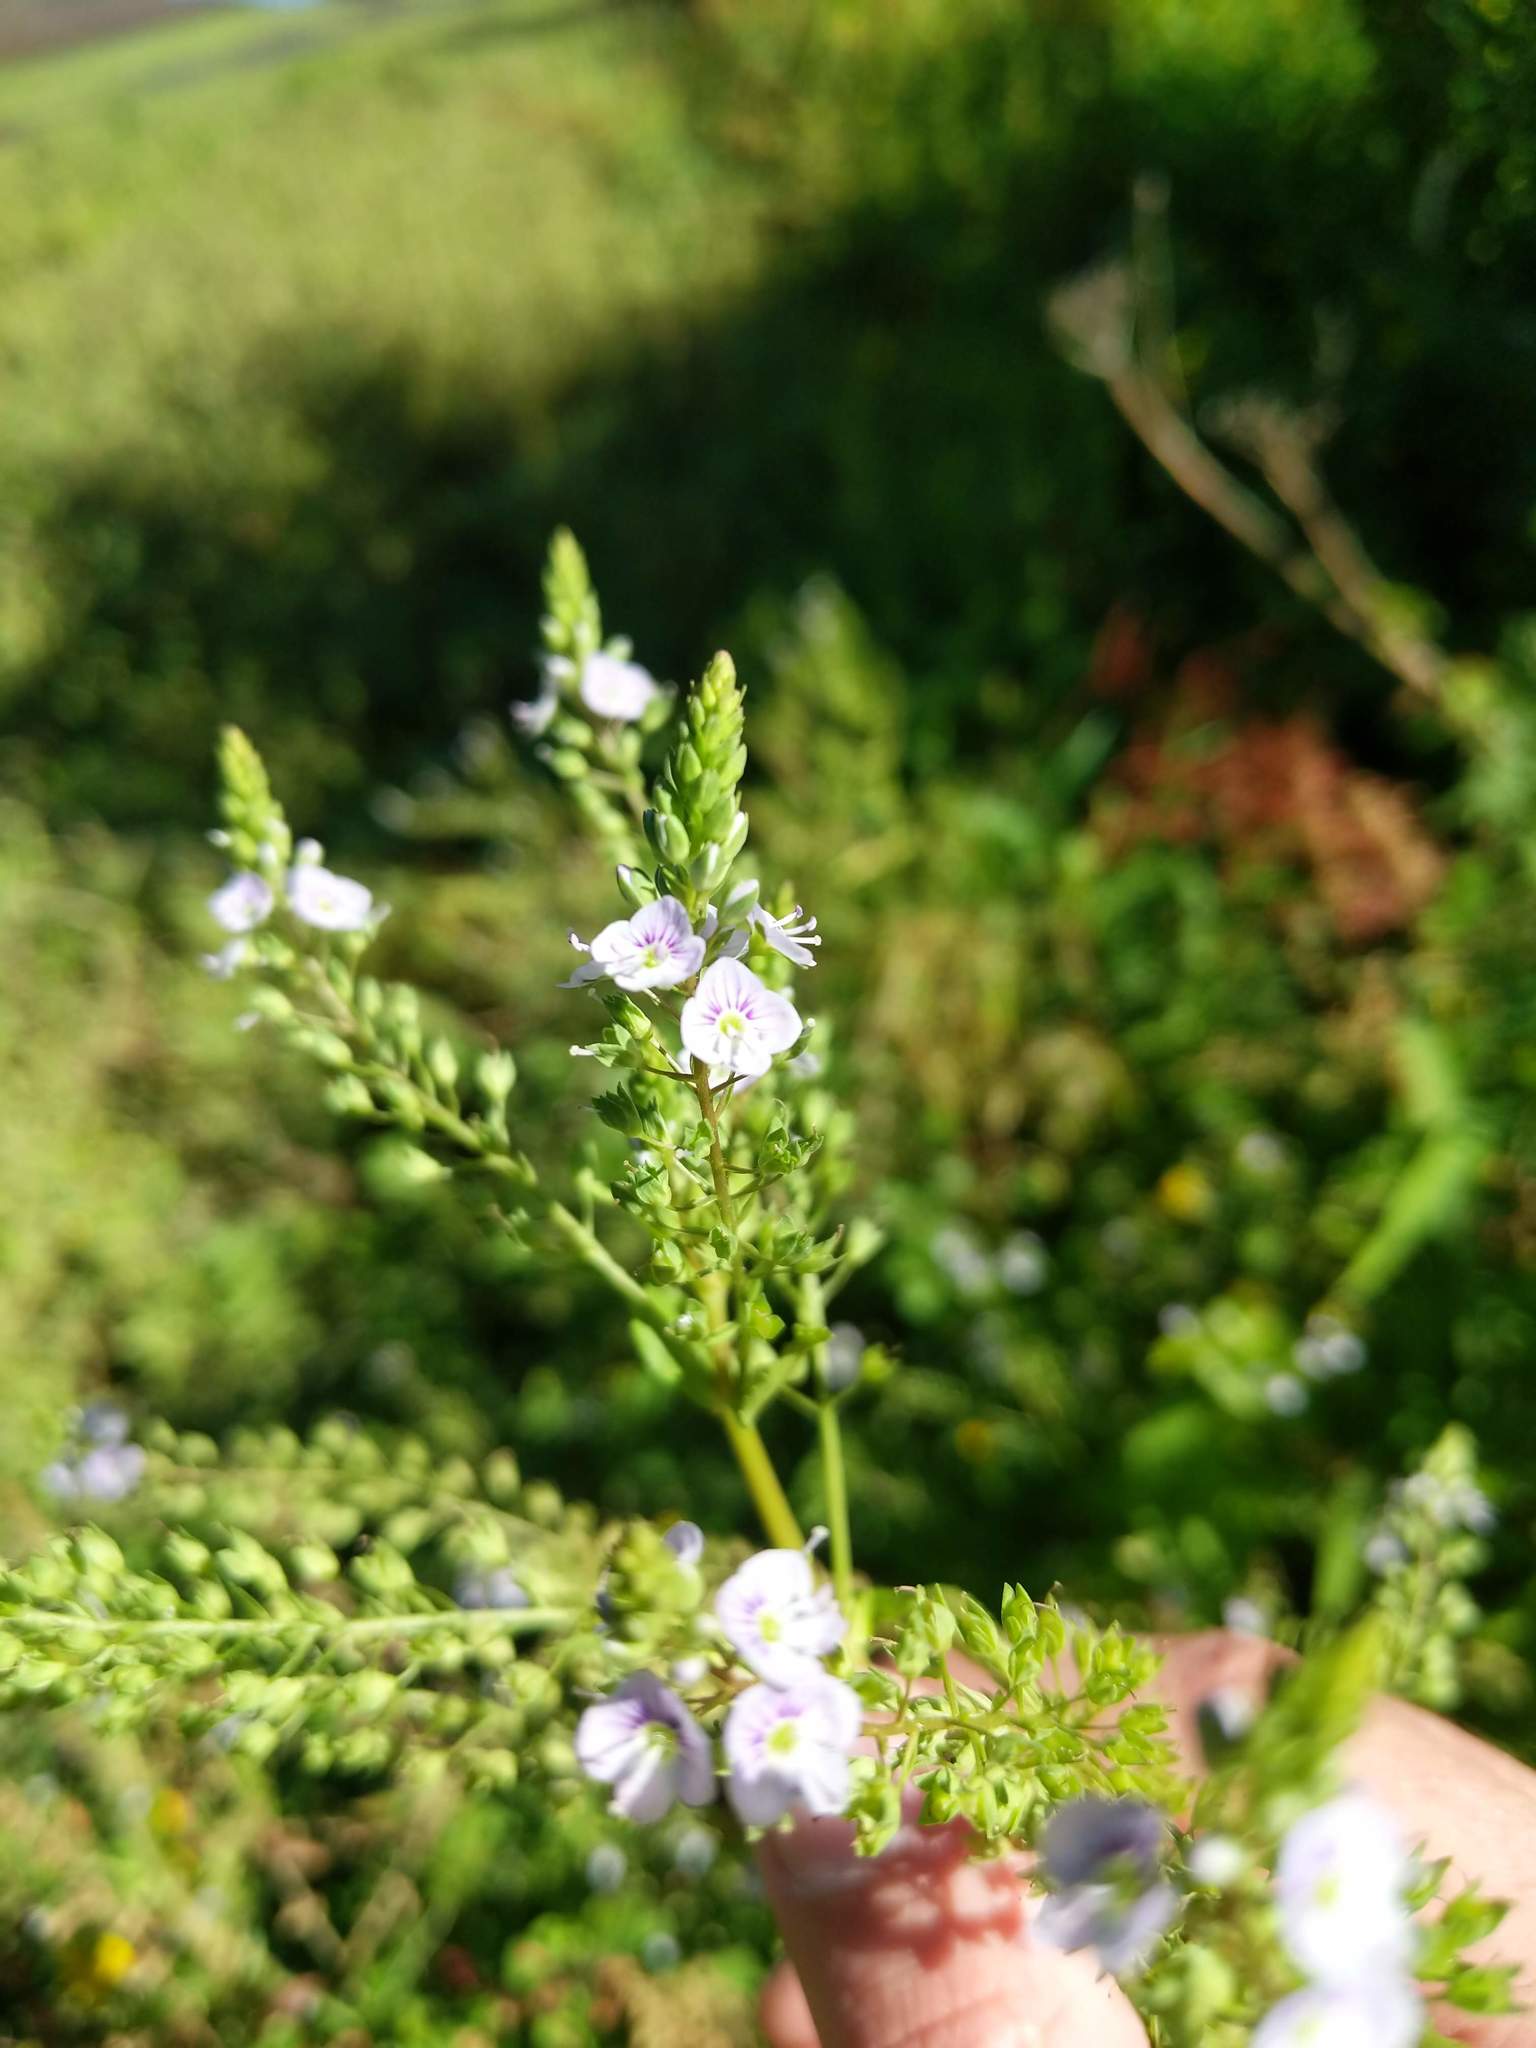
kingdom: Plantae
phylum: Tracheophyta
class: Magnoliopsida
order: Lamiales
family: Plantaginaceae
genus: Veronica
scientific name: Veronica catenata
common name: Pink water-speedwell
